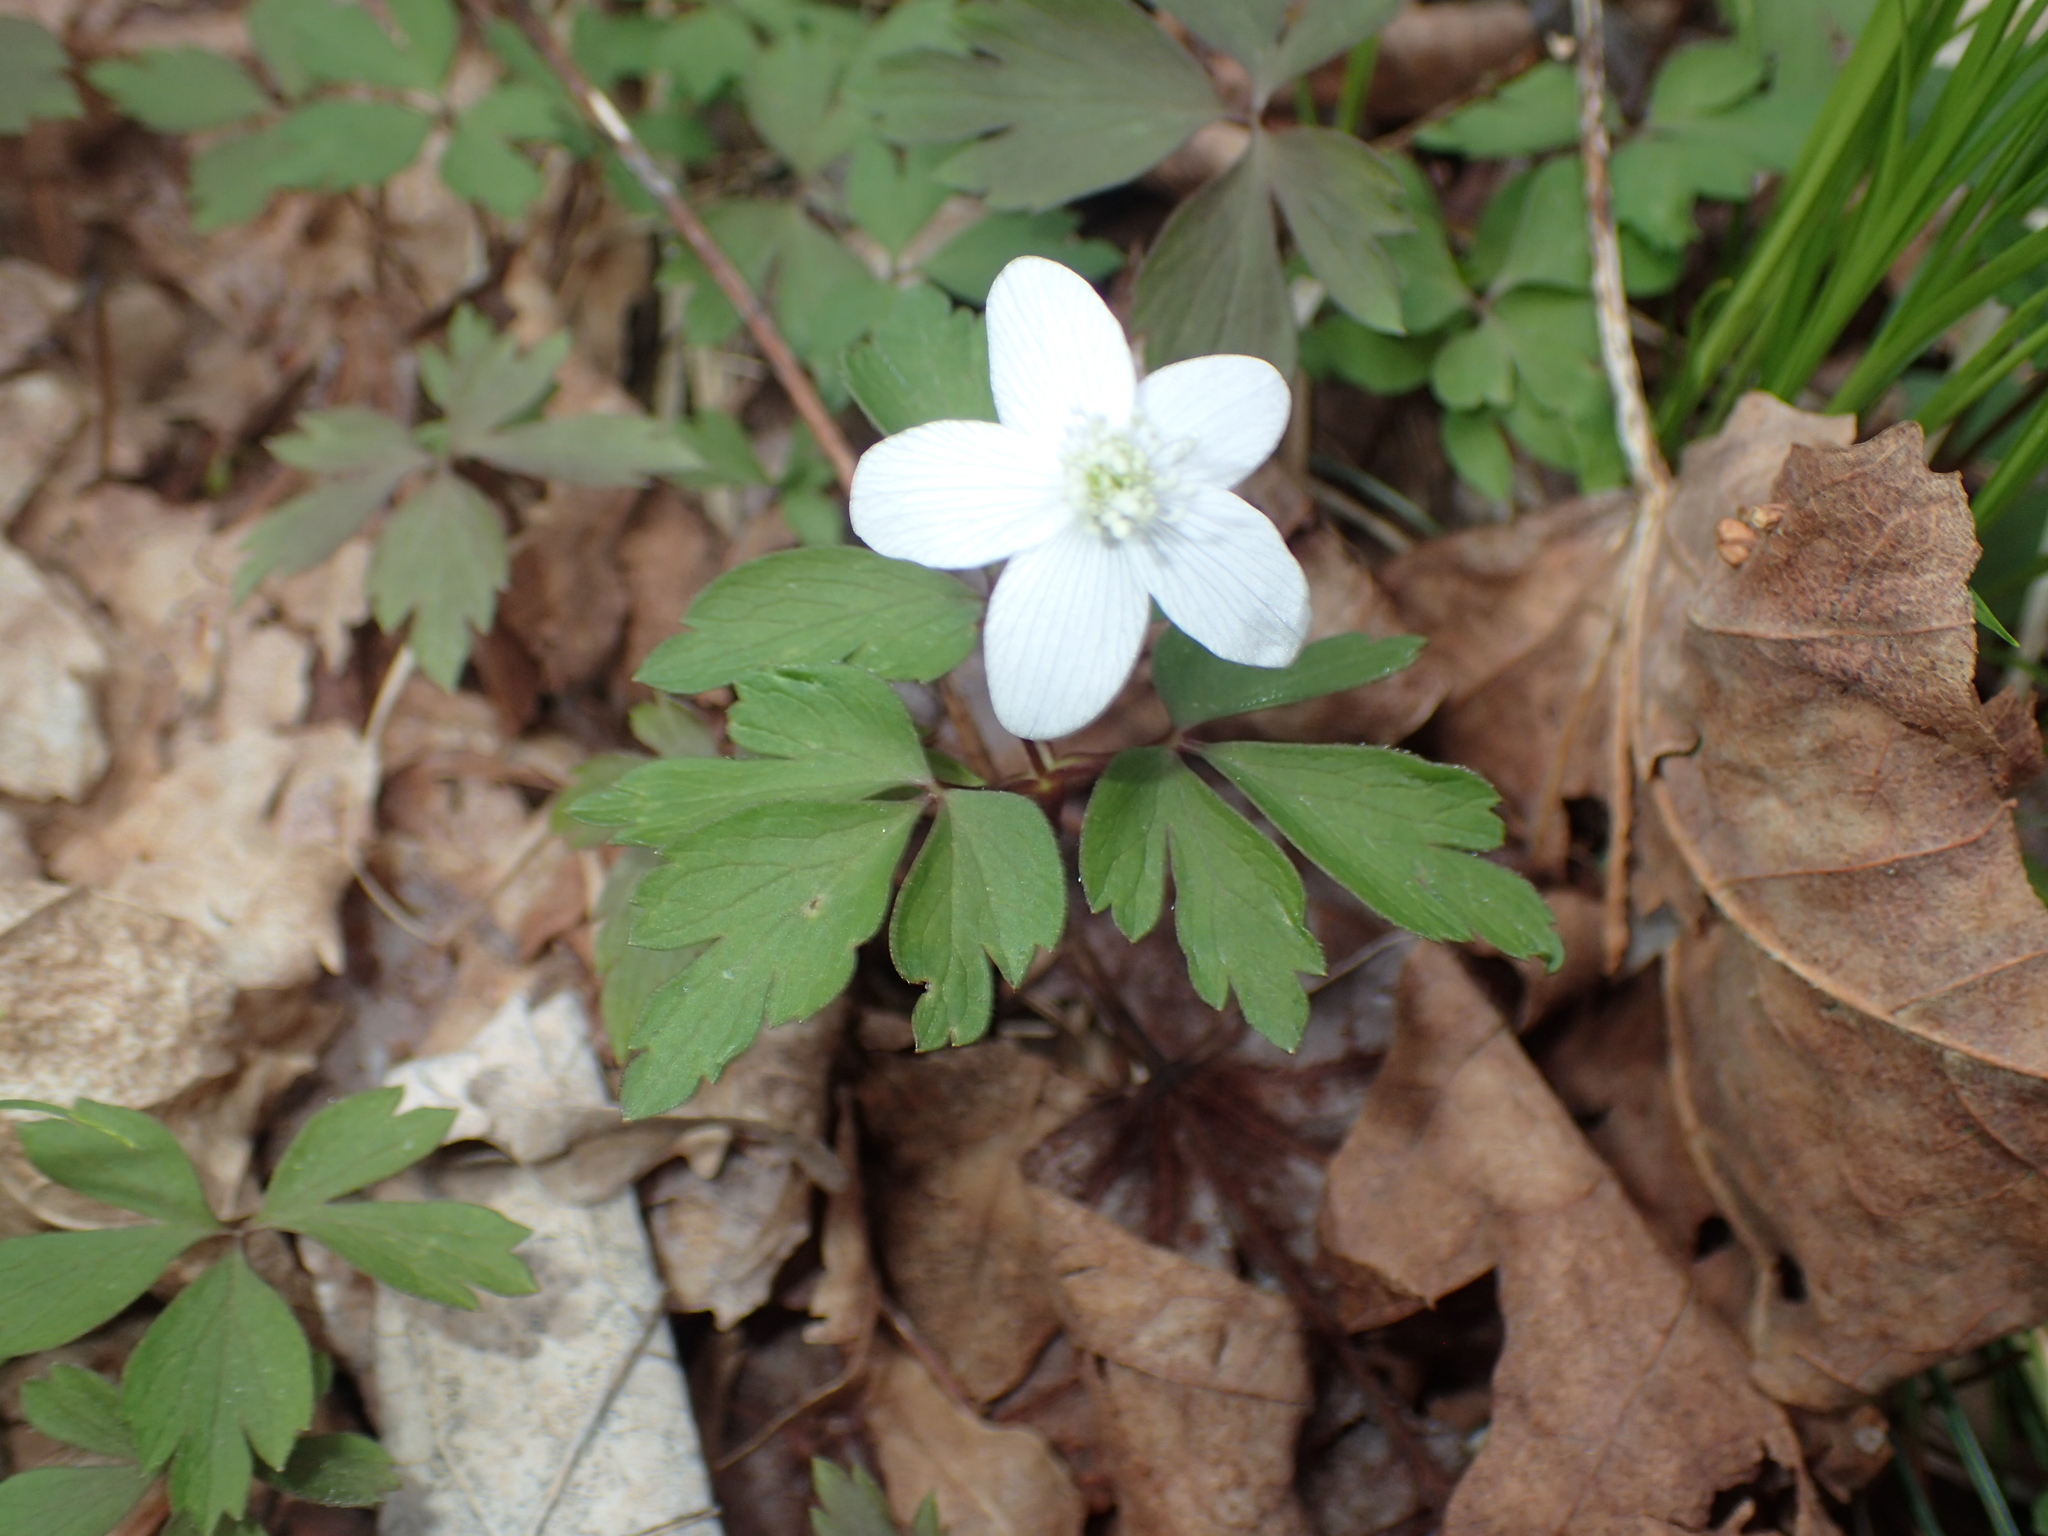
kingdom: Plantae
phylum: Tracheophyta
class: Magnoliopsida
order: Ranunculales
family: Ranunculaceae
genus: Anemone
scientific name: Anemone quinquefolia
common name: Wood anemone
